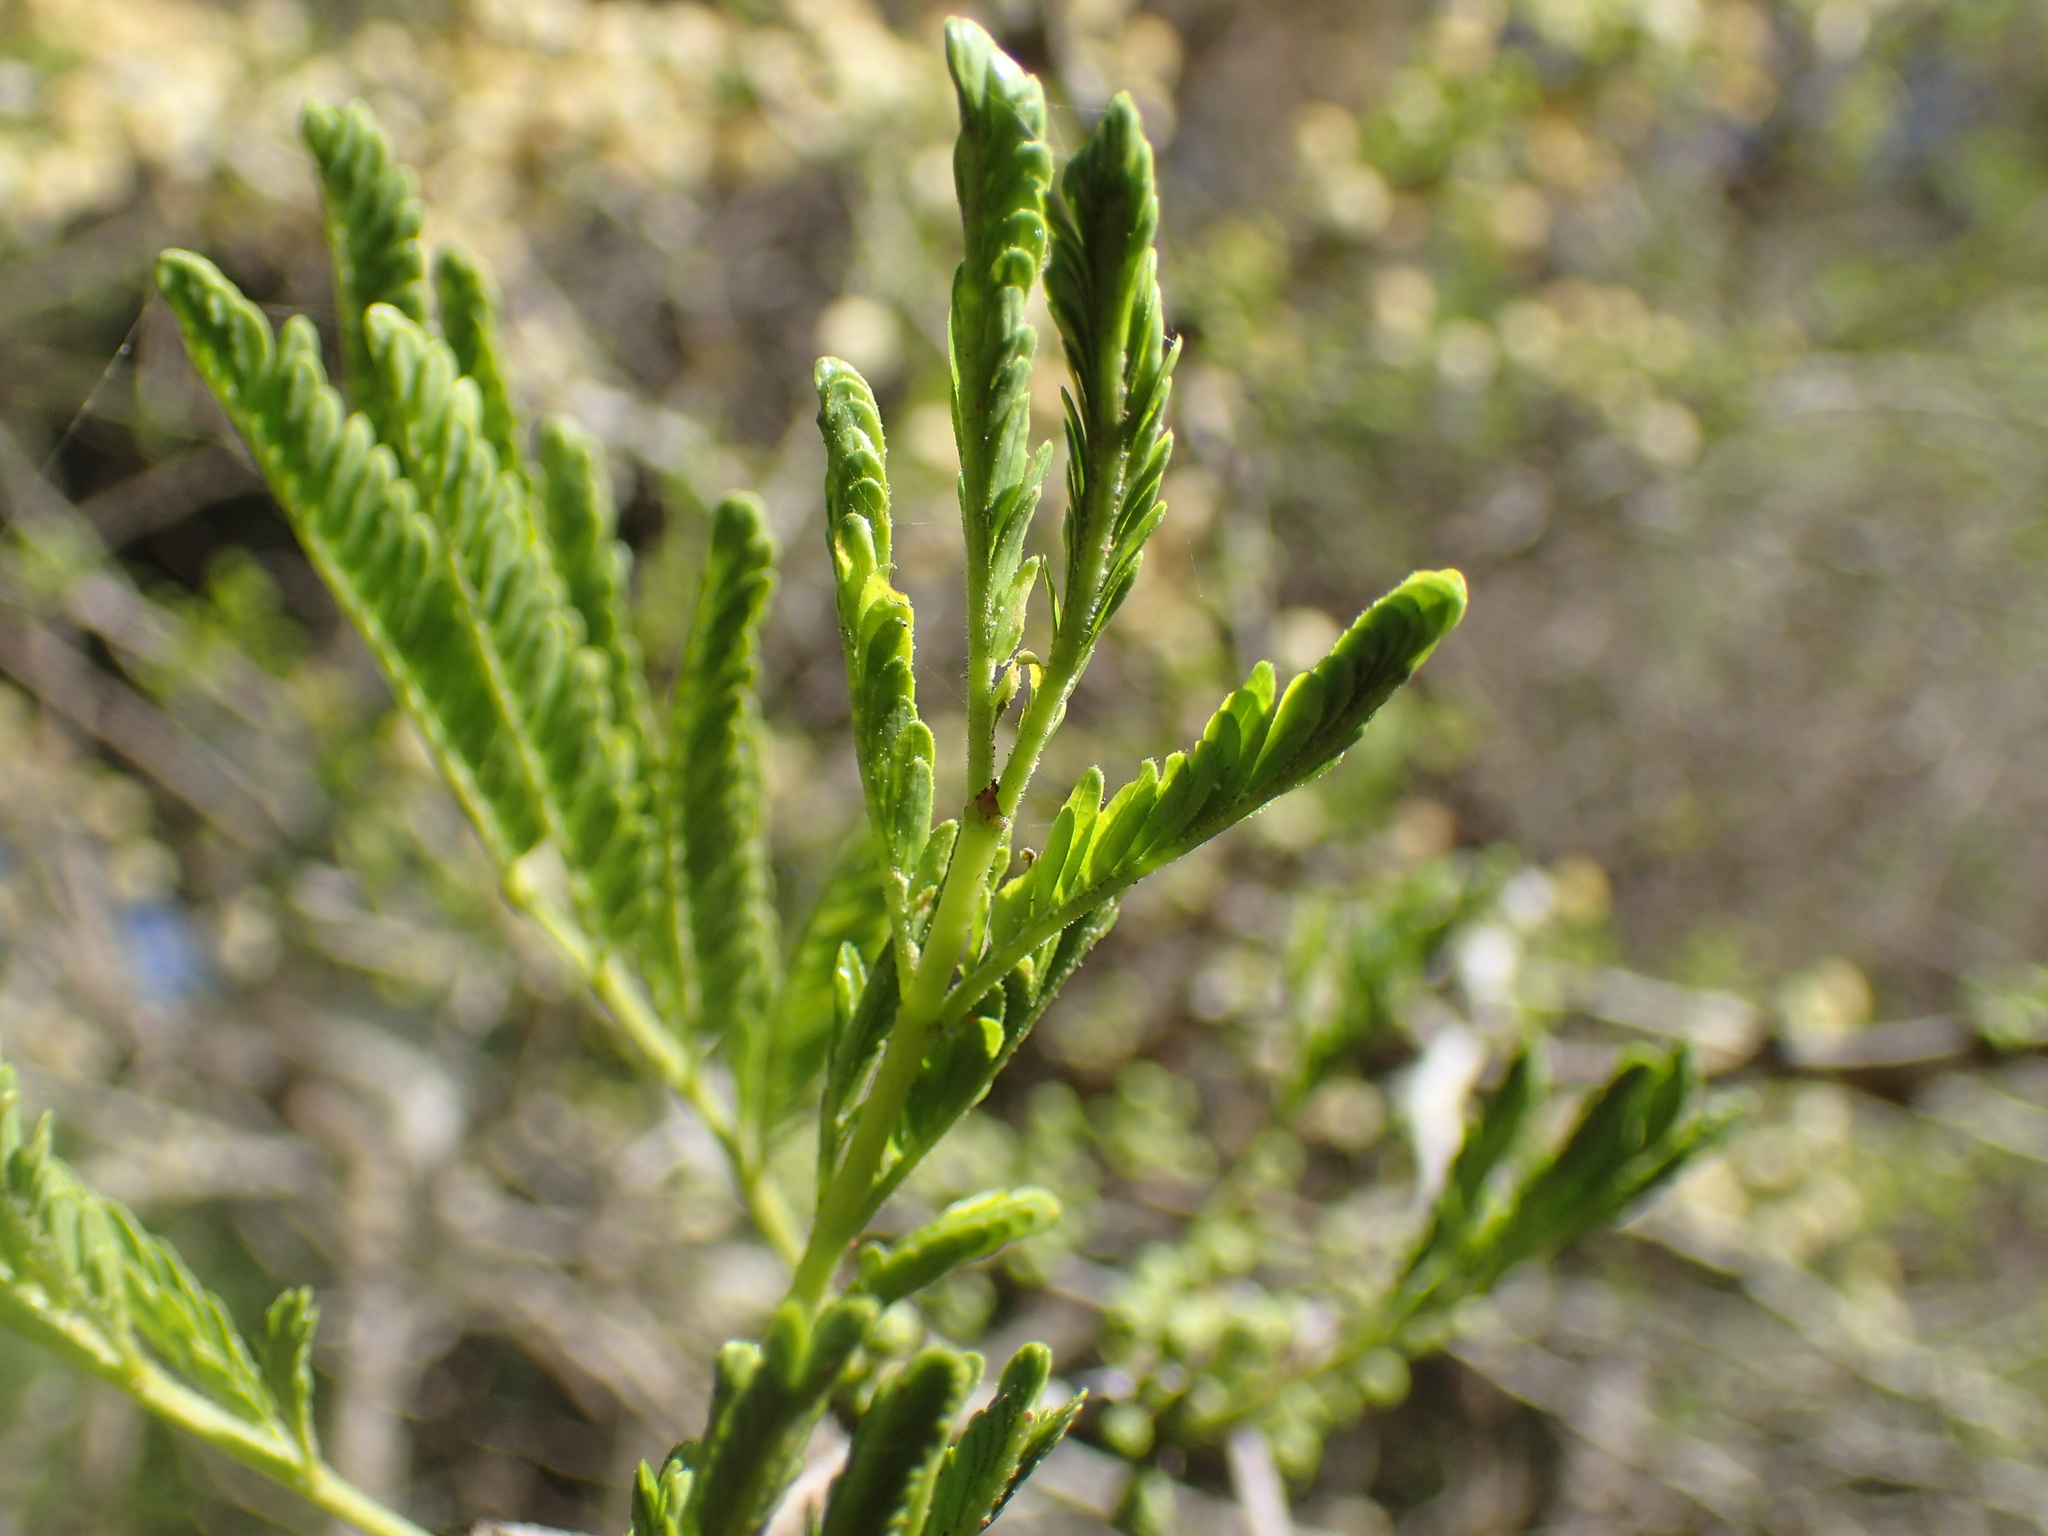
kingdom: Plantae
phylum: Tracheophyta
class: Magnoliopsida
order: Fabales
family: Fabaceae
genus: Vachellia
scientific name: Vachellia robusta
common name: Ankle thorn
